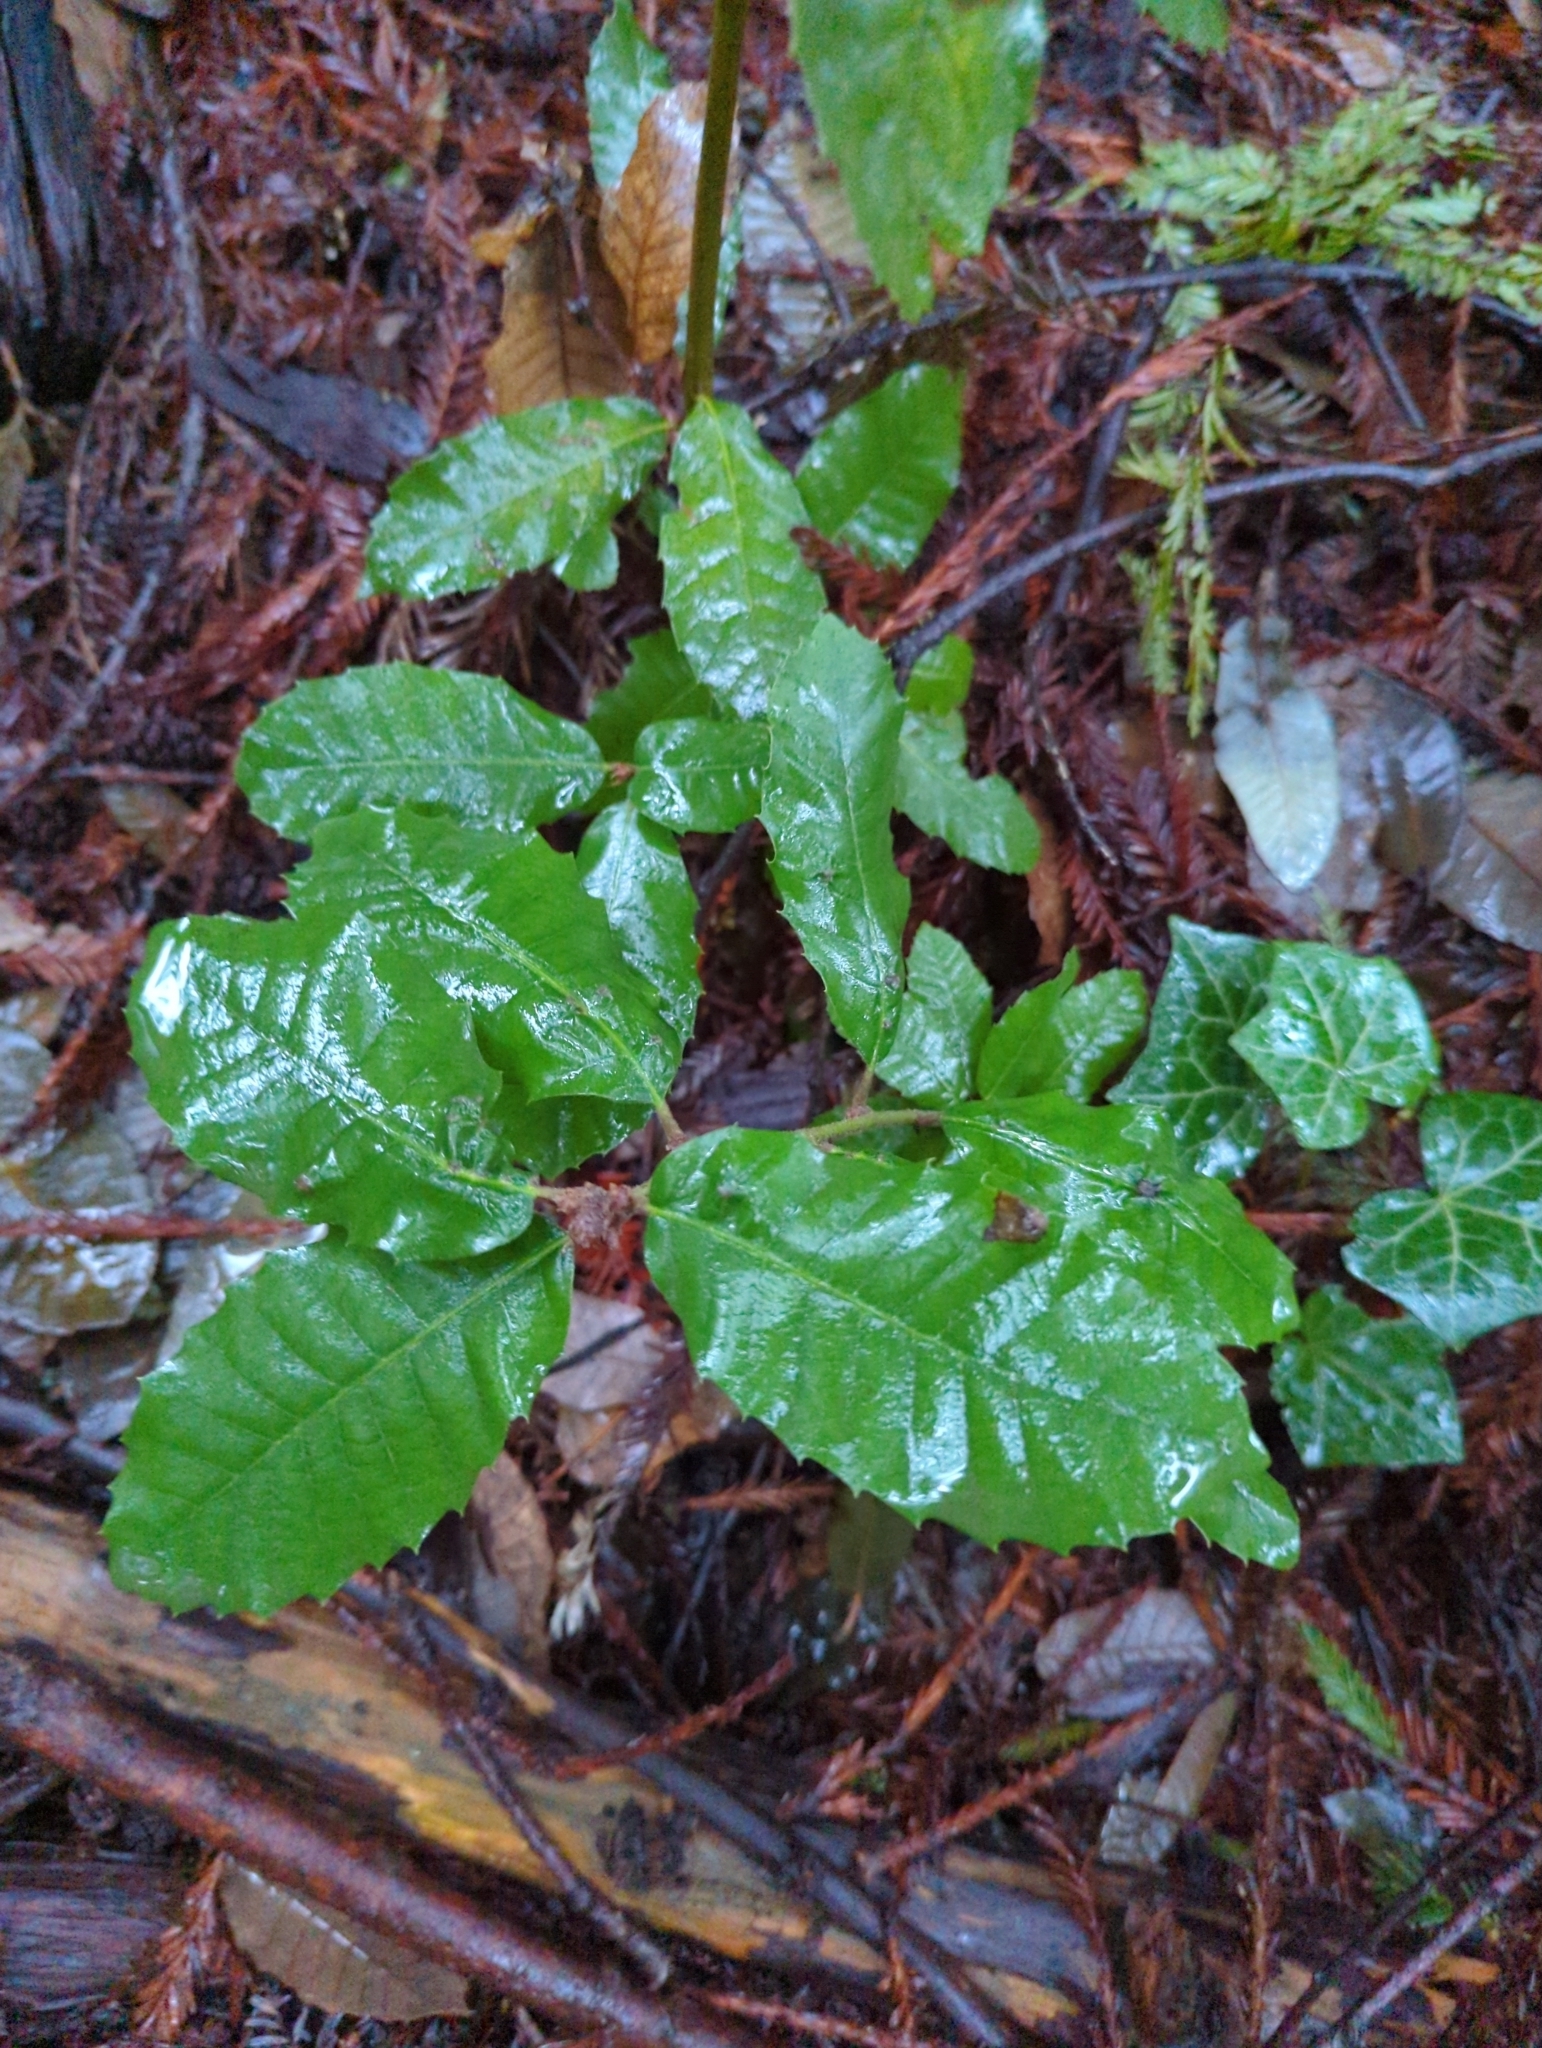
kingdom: Plantae
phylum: Tracheophyta
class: Magnoliopsida
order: Fagales
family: Fagaceae
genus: Notholithocarpus
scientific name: Notholithocarpus densiflorus
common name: Tan bark oak
